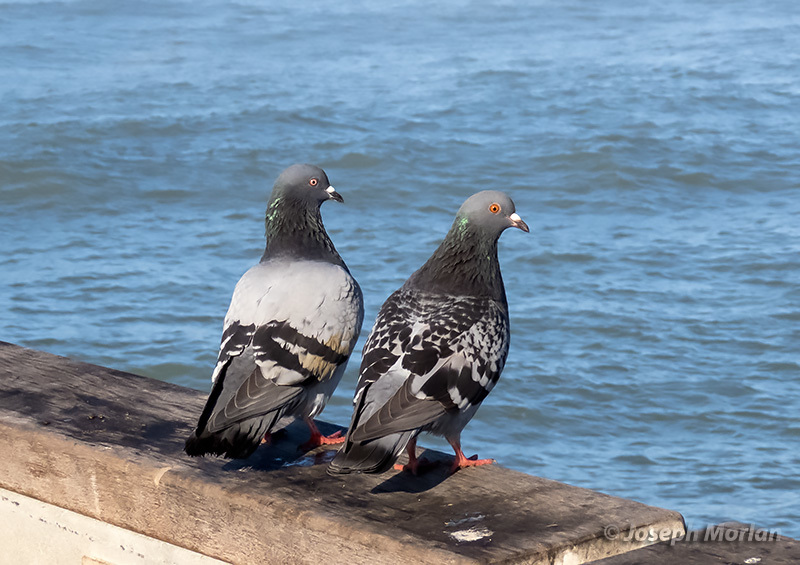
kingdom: Animalia
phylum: Chordata
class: Aves
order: Columbiformes
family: Columbidae
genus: Columba
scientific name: Columba livia
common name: Rock pigeon
